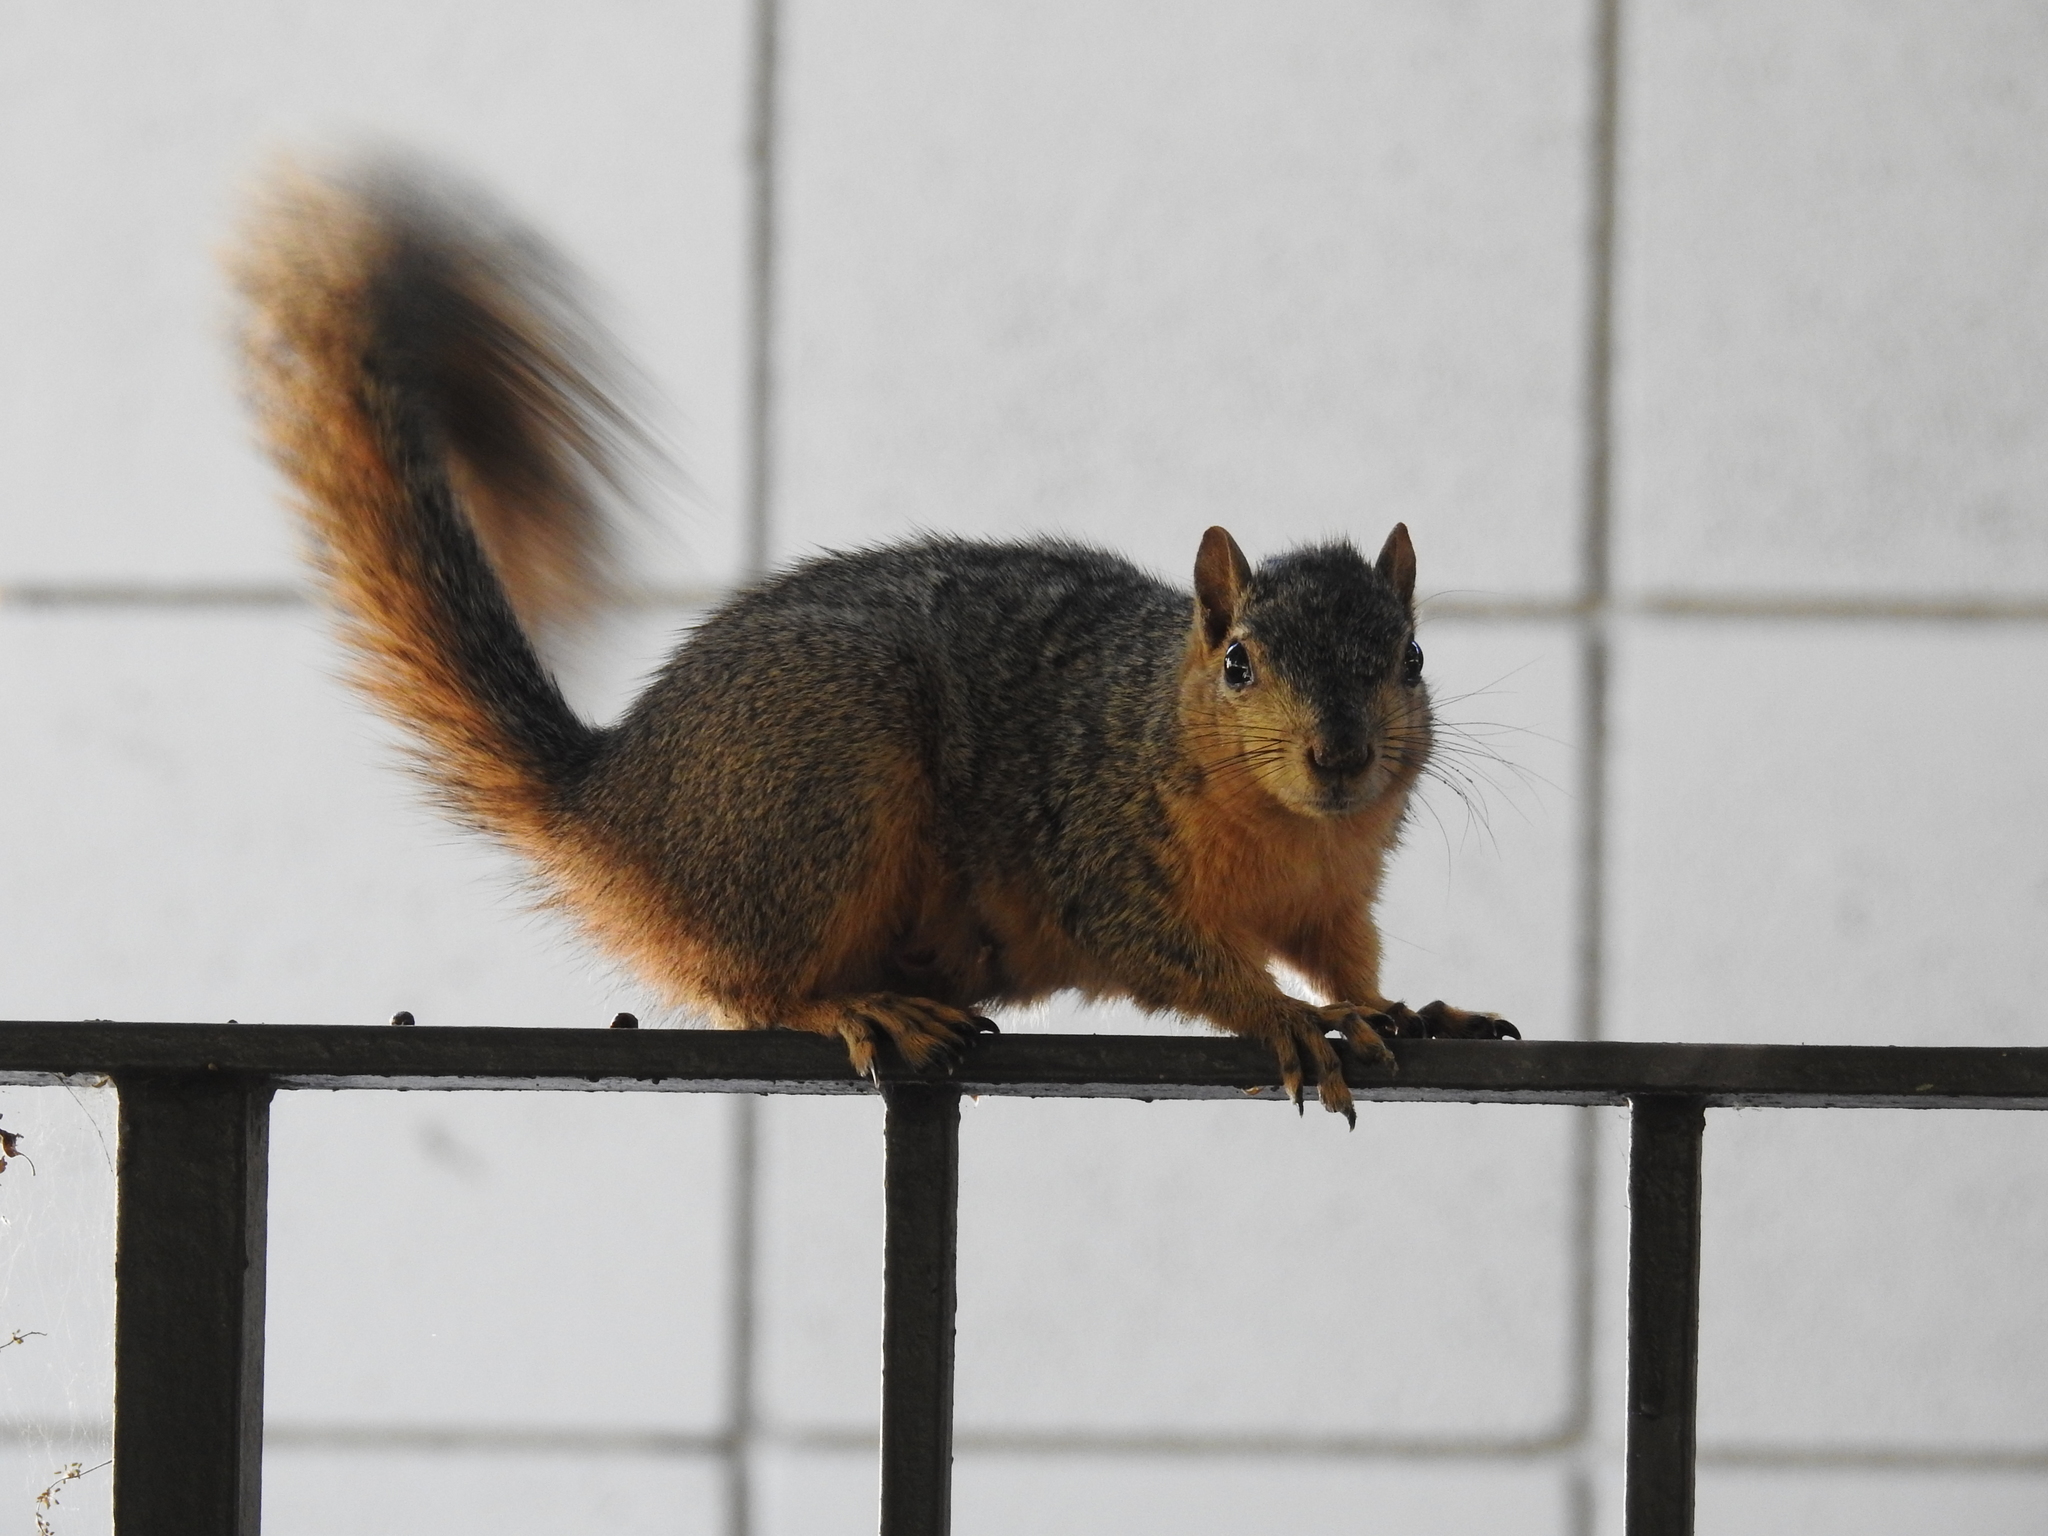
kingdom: Animalia
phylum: Chordata
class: Mammalia
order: Rodentia
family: Sciuridae
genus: Sciurus
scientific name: Sciurus niger
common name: Fox squirrel
